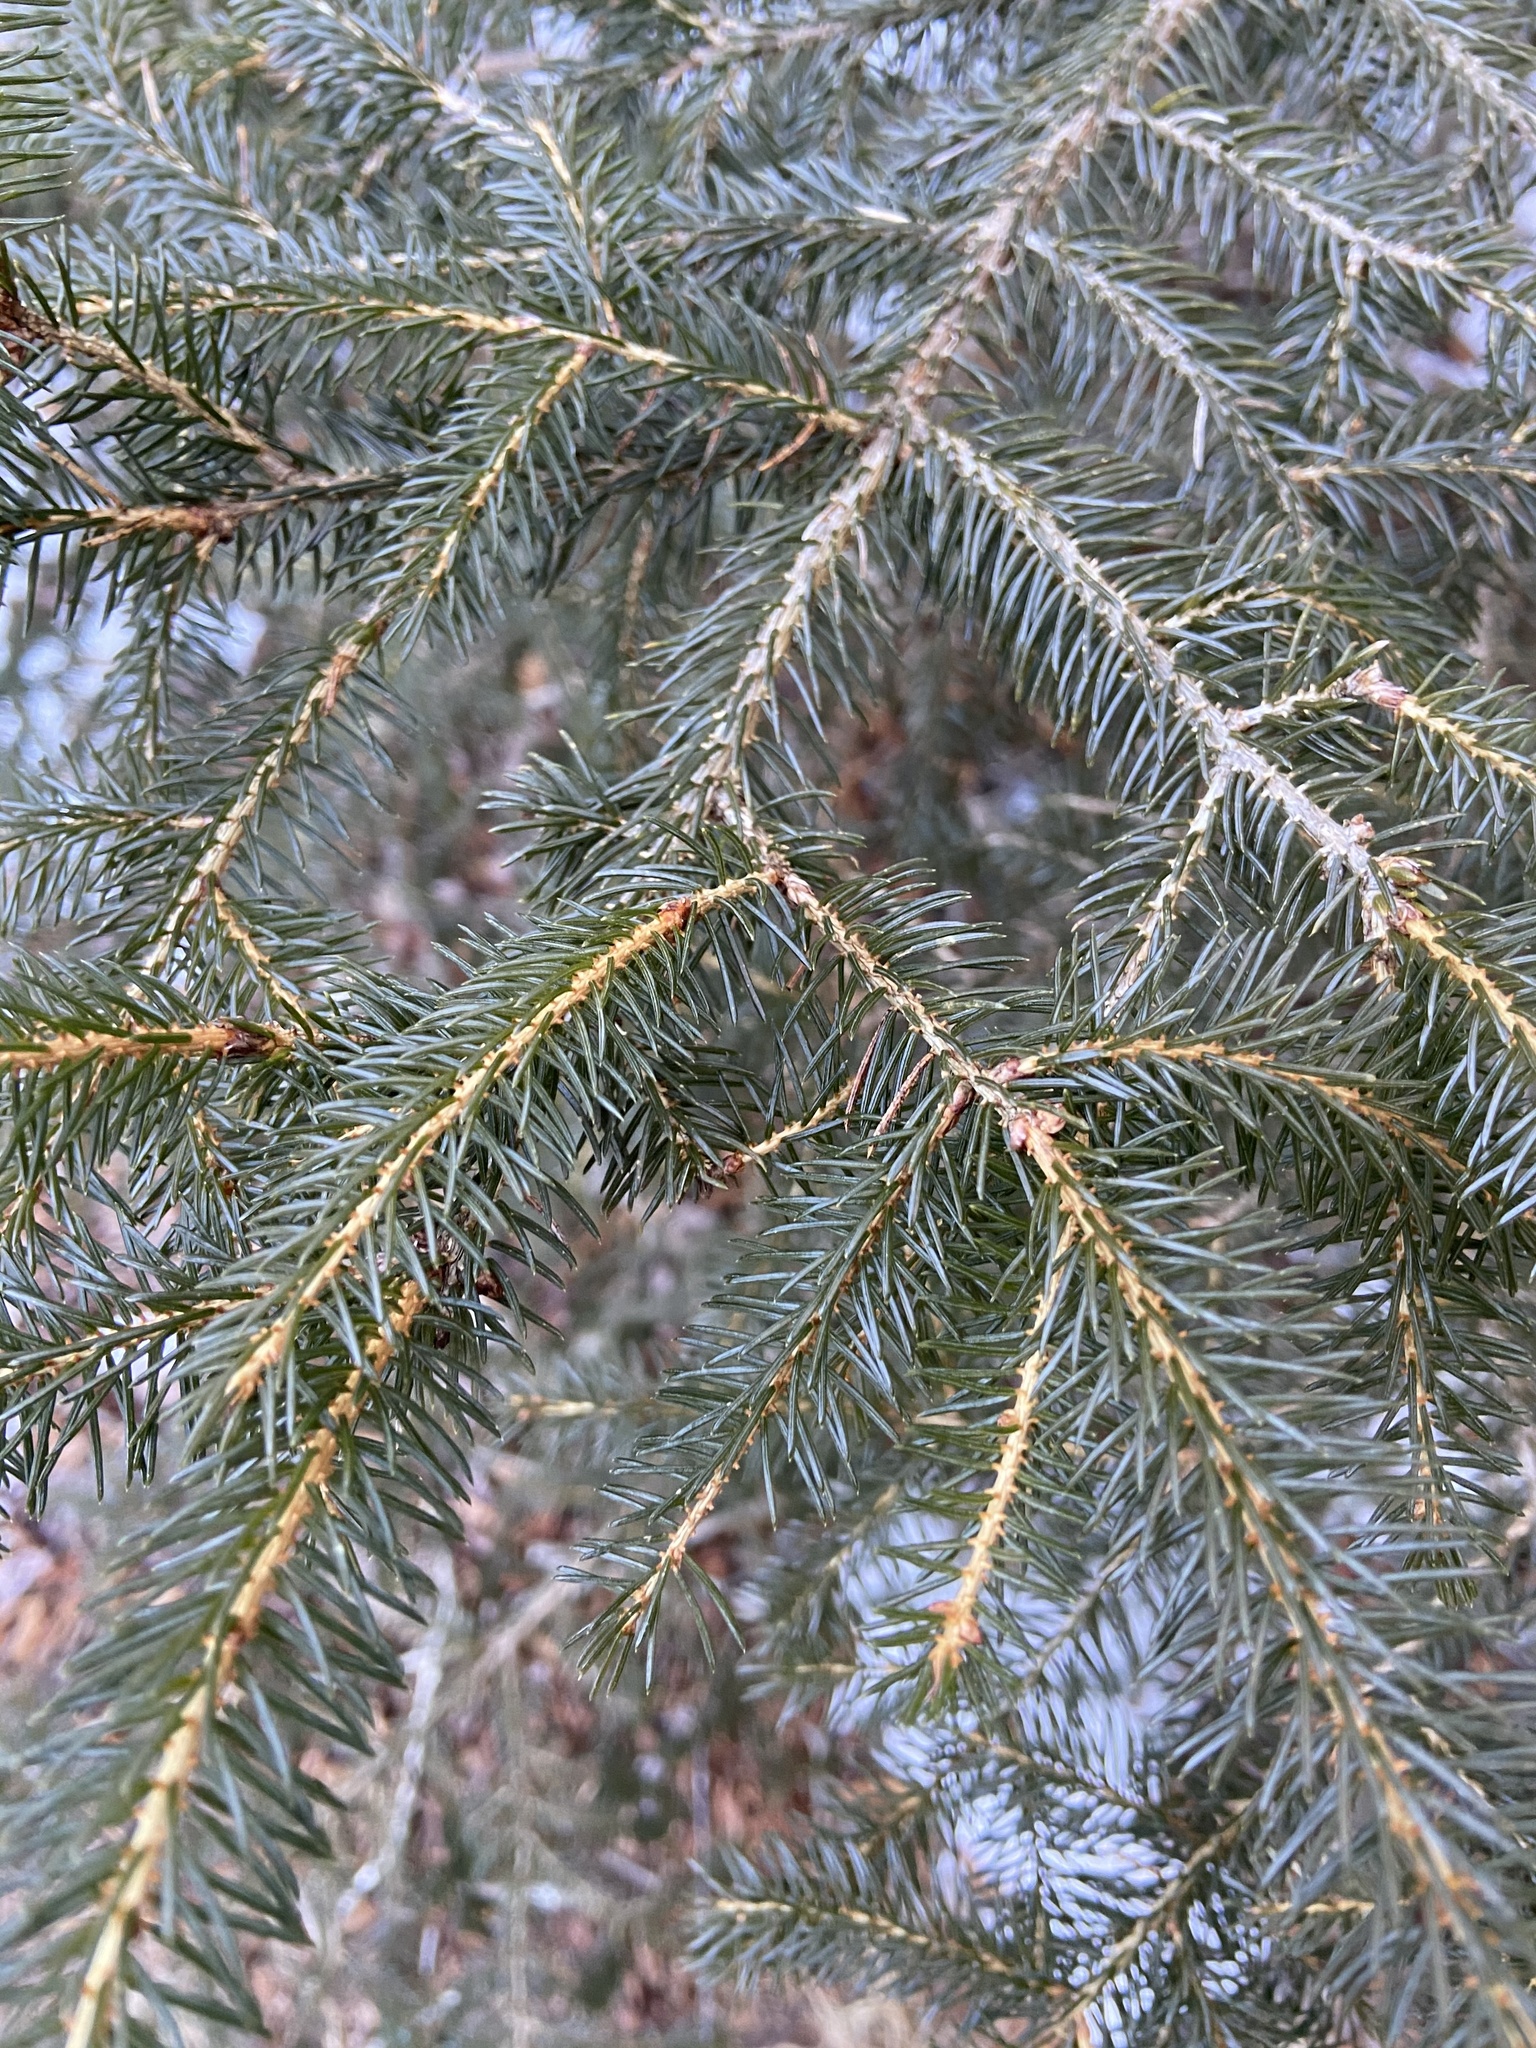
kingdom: Plantae
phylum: Tracheophyta
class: Pinopsida
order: Pinales
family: Pinaceae
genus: Picea
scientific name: Picea rubens
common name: Red spruce
